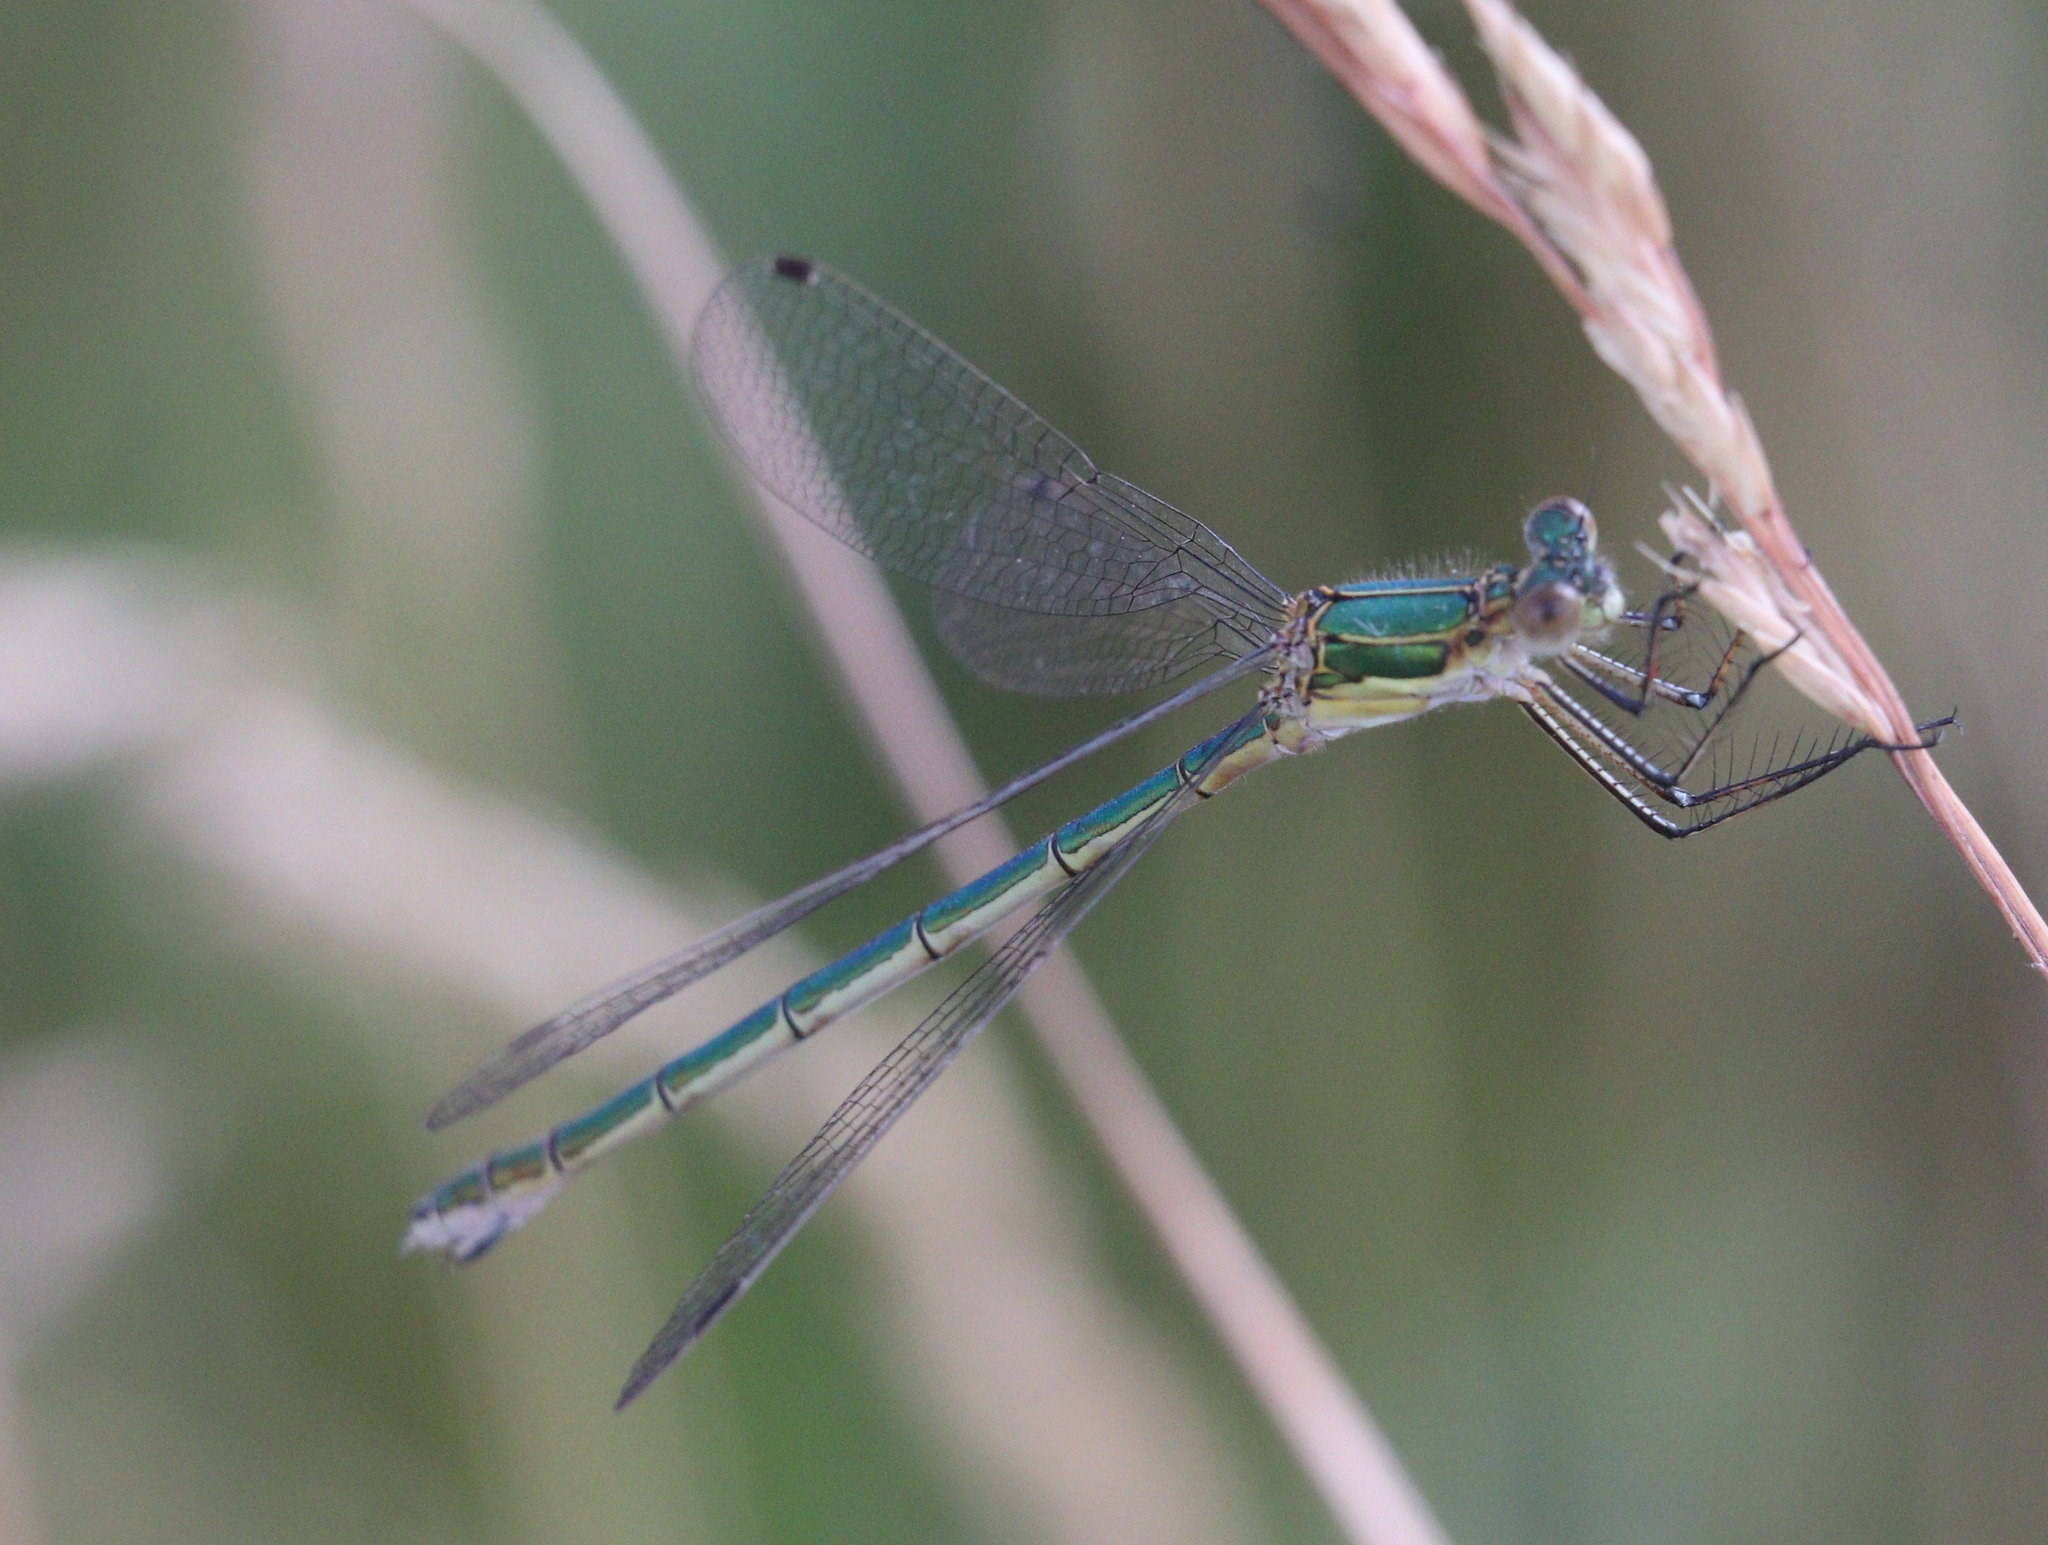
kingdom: Animalia
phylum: Arthropoda
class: Insecta
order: Odonata
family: Lestidae
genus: Lestes
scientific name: Lestes sponsa
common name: Common spreadwing
